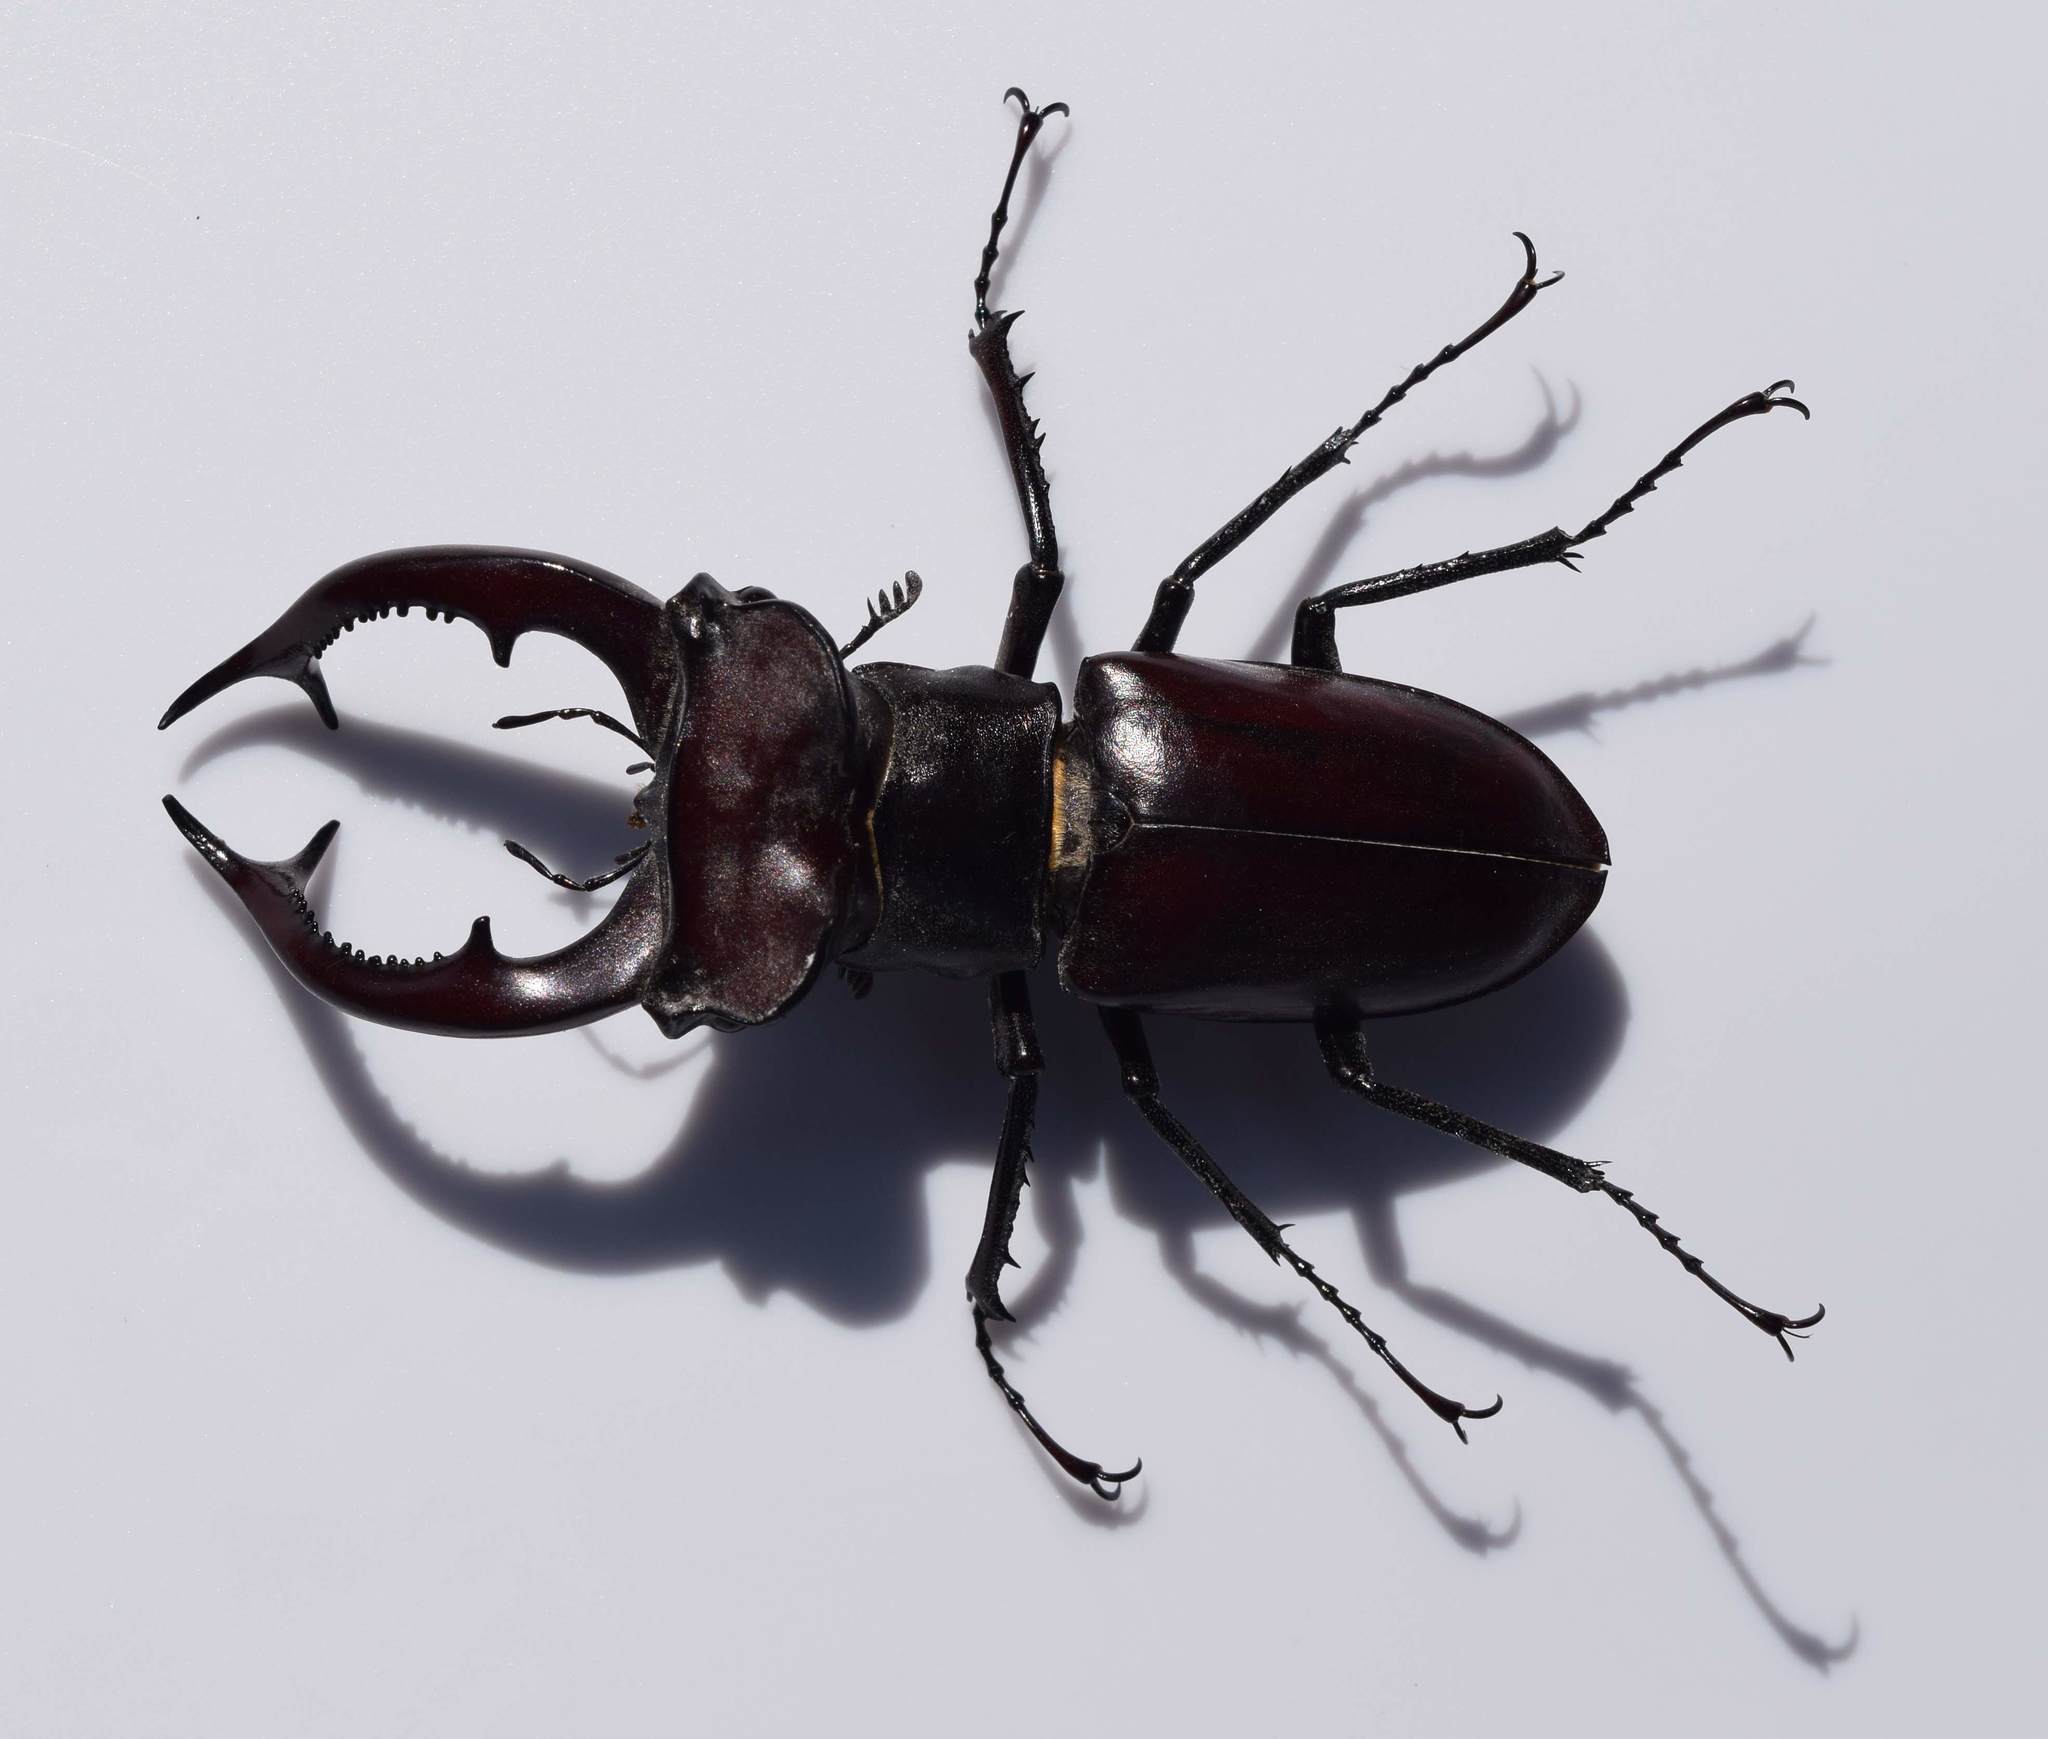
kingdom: Animalia
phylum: Arthropoda
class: Insecta
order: Coleoptera
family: Lucanidae
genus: Lucanus
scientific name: Lucanus elaphus
